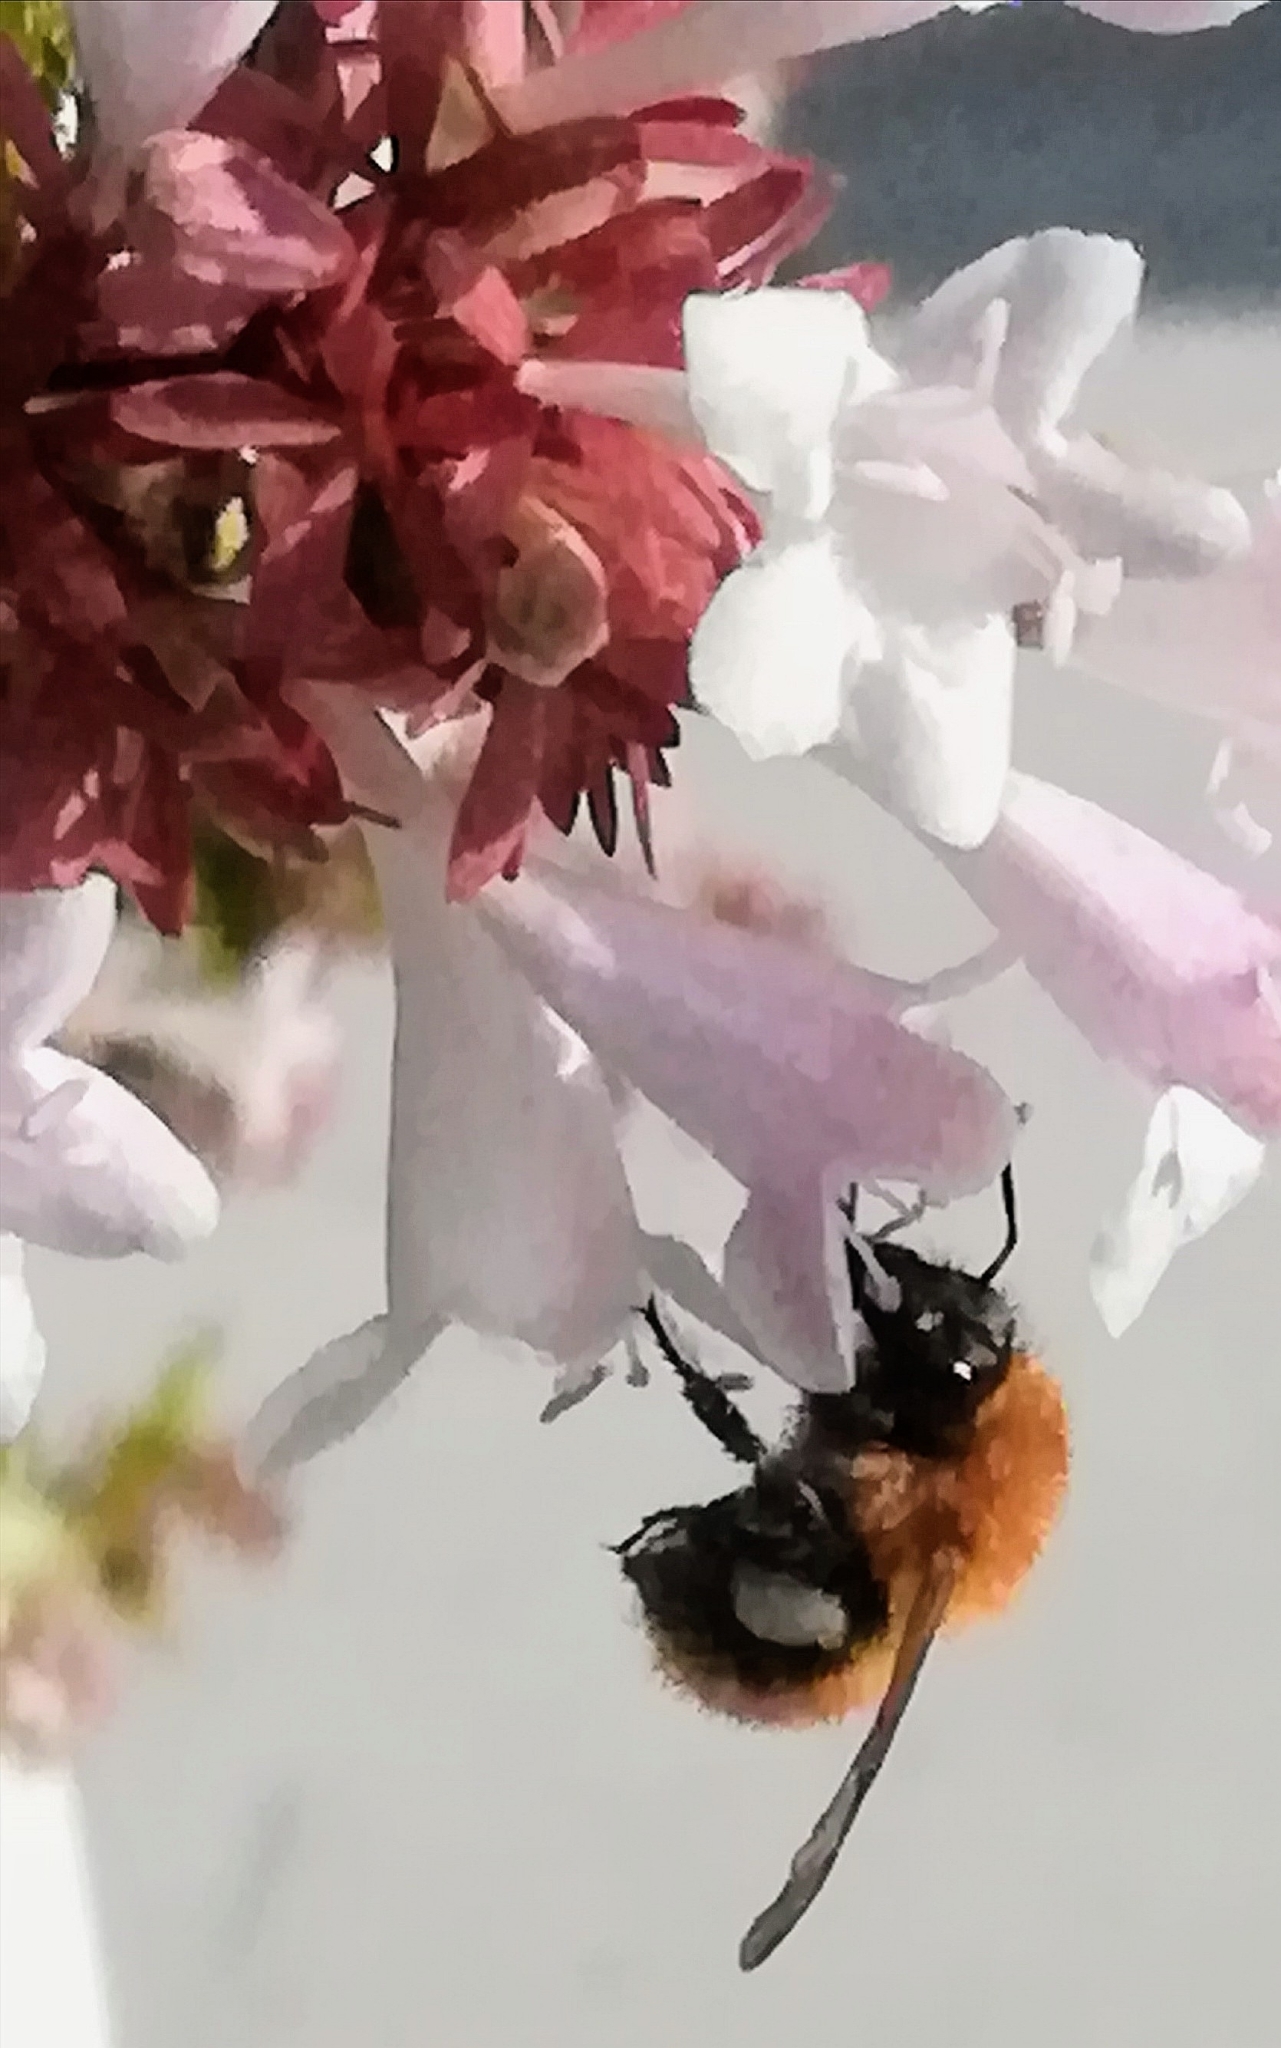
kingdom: Animalia
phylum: Arthropoda
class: Insecta
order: Hymenoptera
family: Apidae
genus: Bombus
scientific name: Bombus pascuorum
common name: Common carder bee
